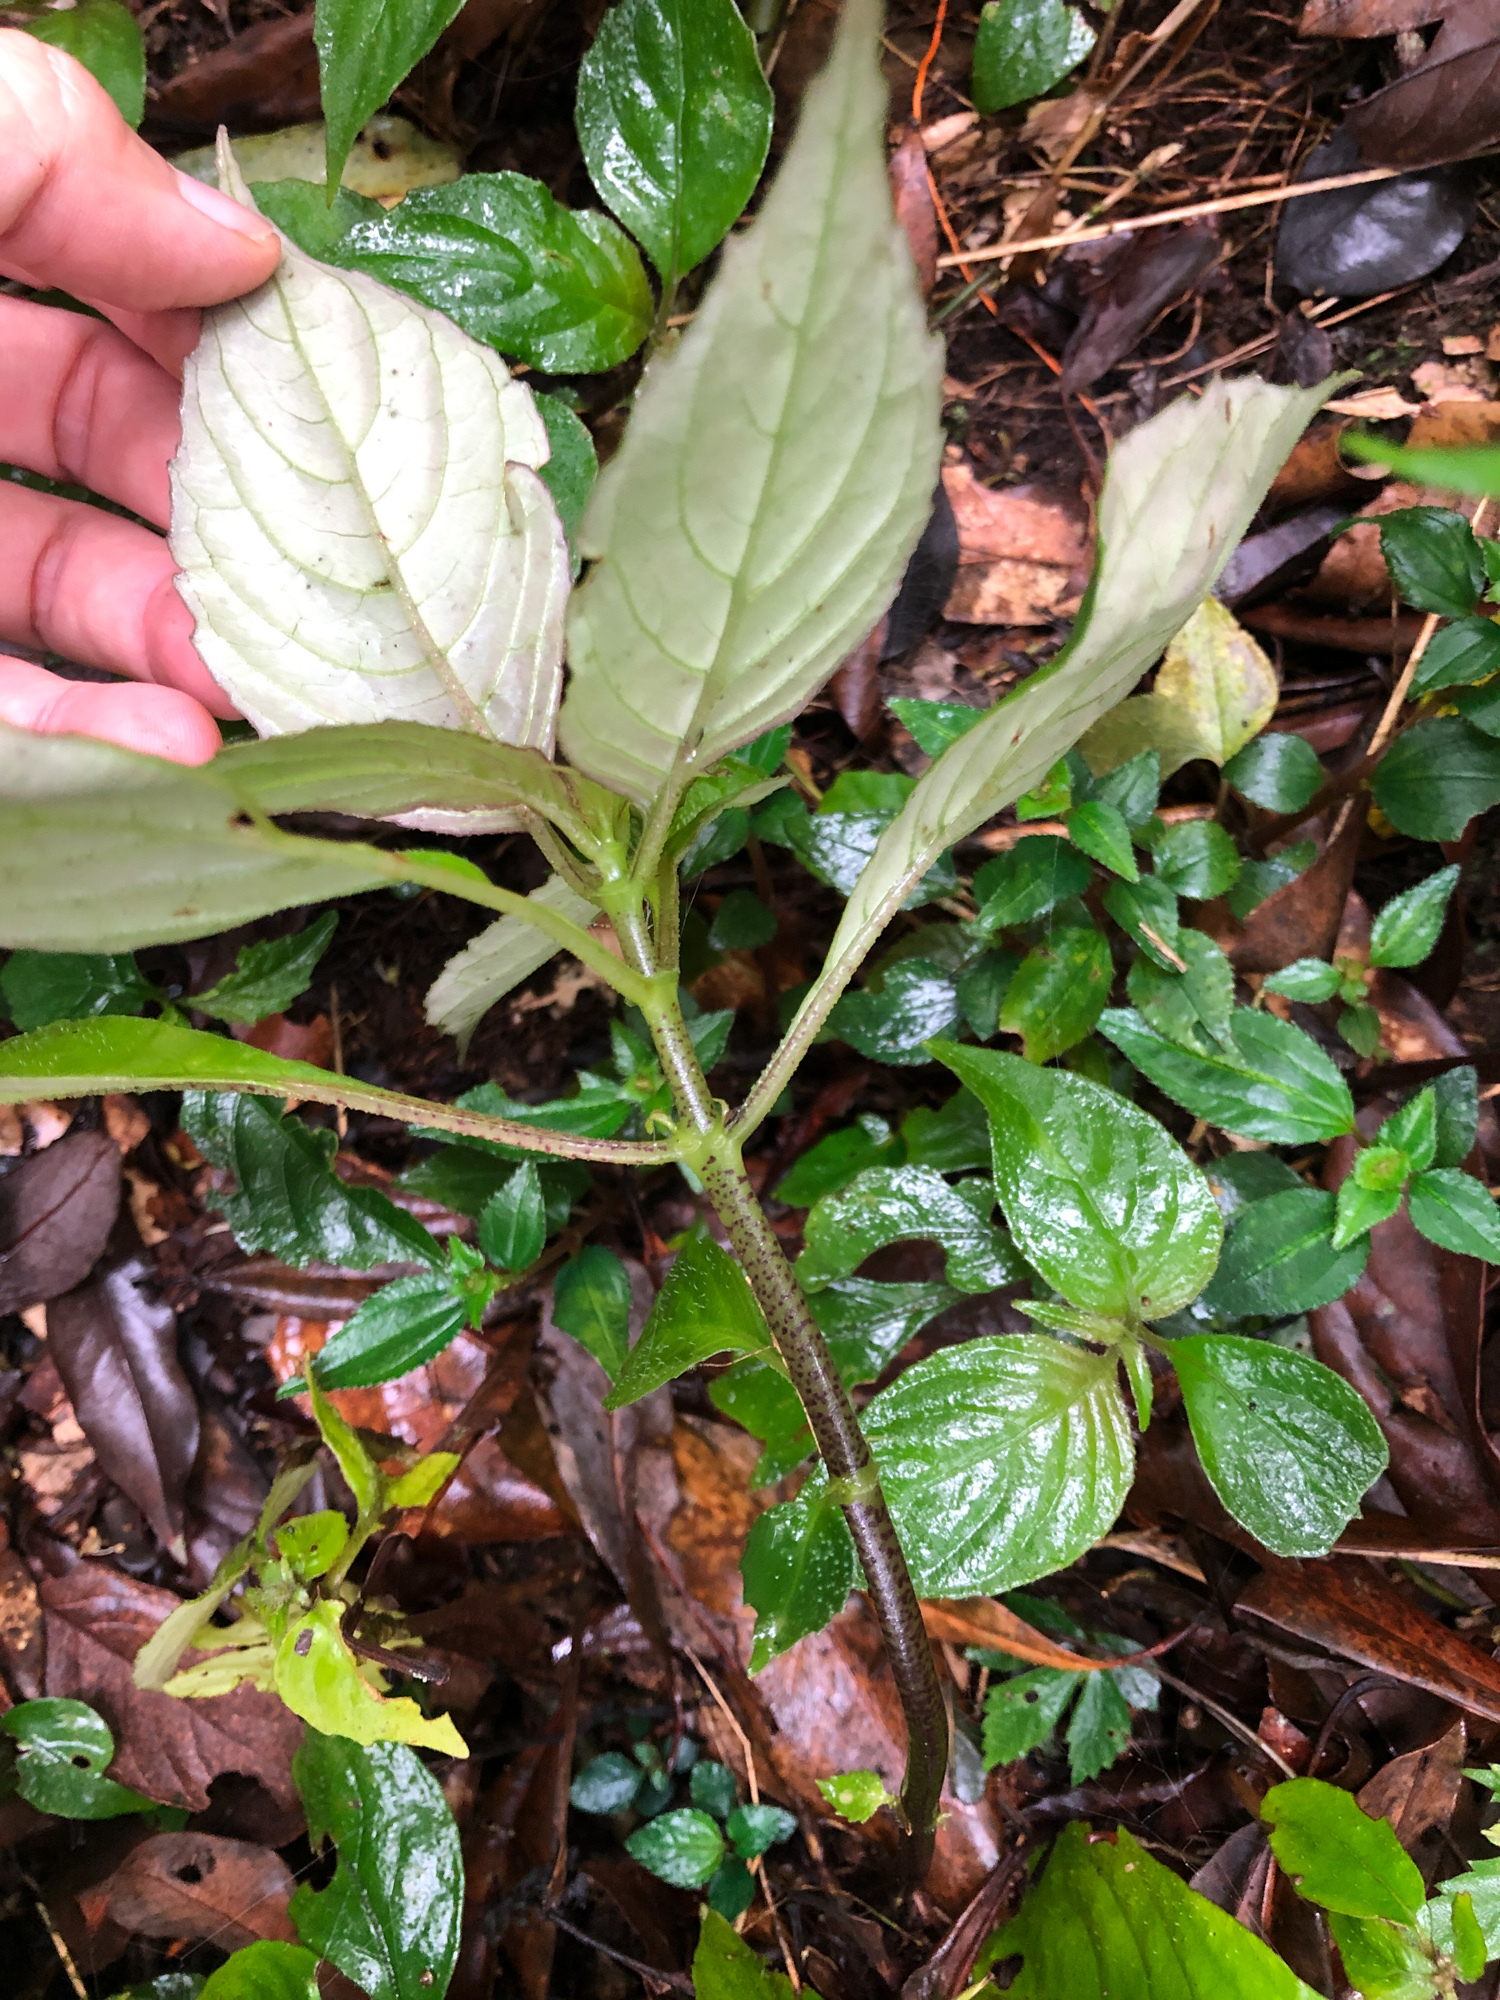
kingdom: Plantae
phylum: Tracheophyta
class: Magnoliopsida
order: Lamiales
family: Gesneriaceae
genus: Hemiboea
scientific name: Hemiboea bicornuta
